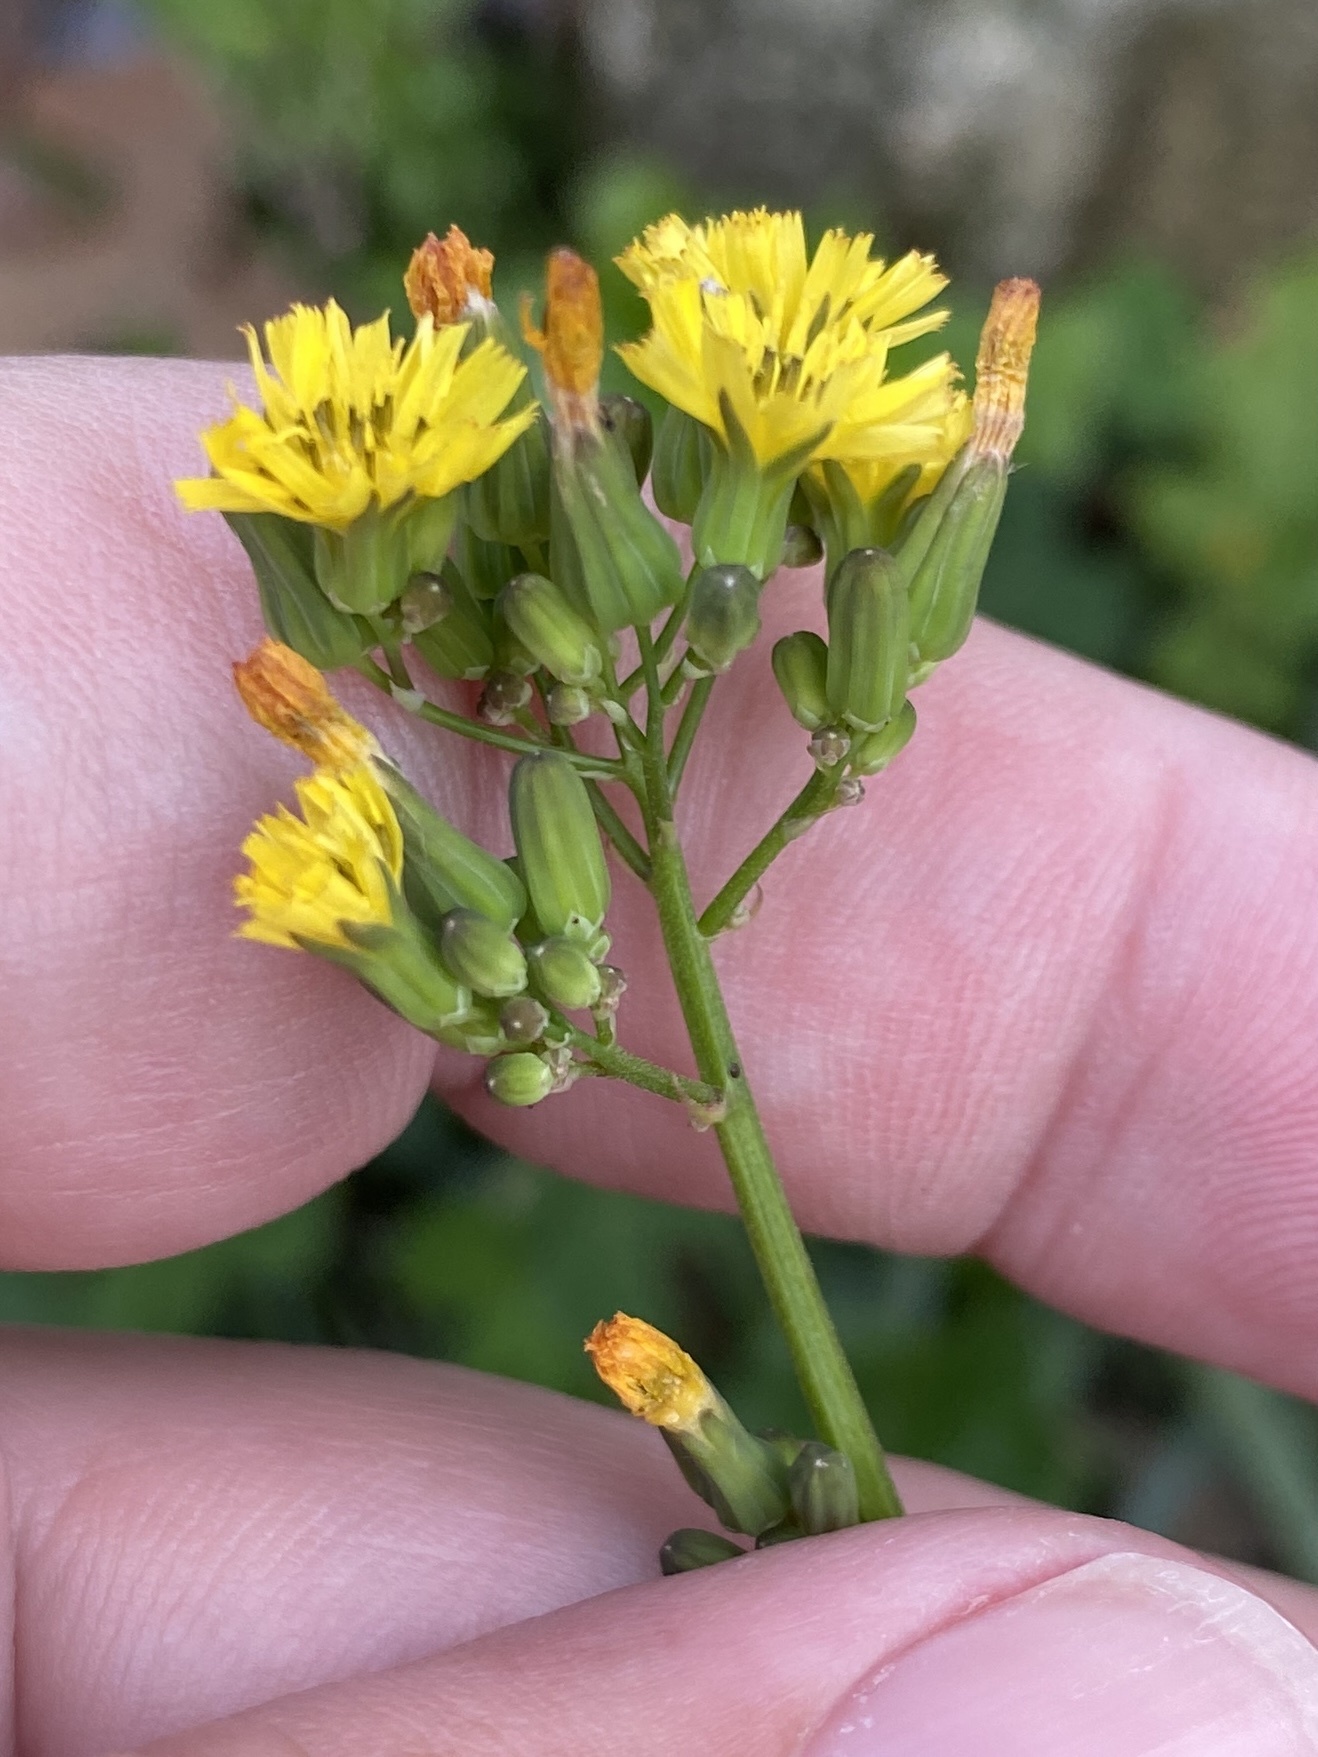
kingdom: Plantae
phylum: Tracheophyta
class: Magnoliopsida
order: Asterales
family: Asteraceae
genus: Youngia
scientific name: Youngia japonica
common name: Oriental false hawksbeard
